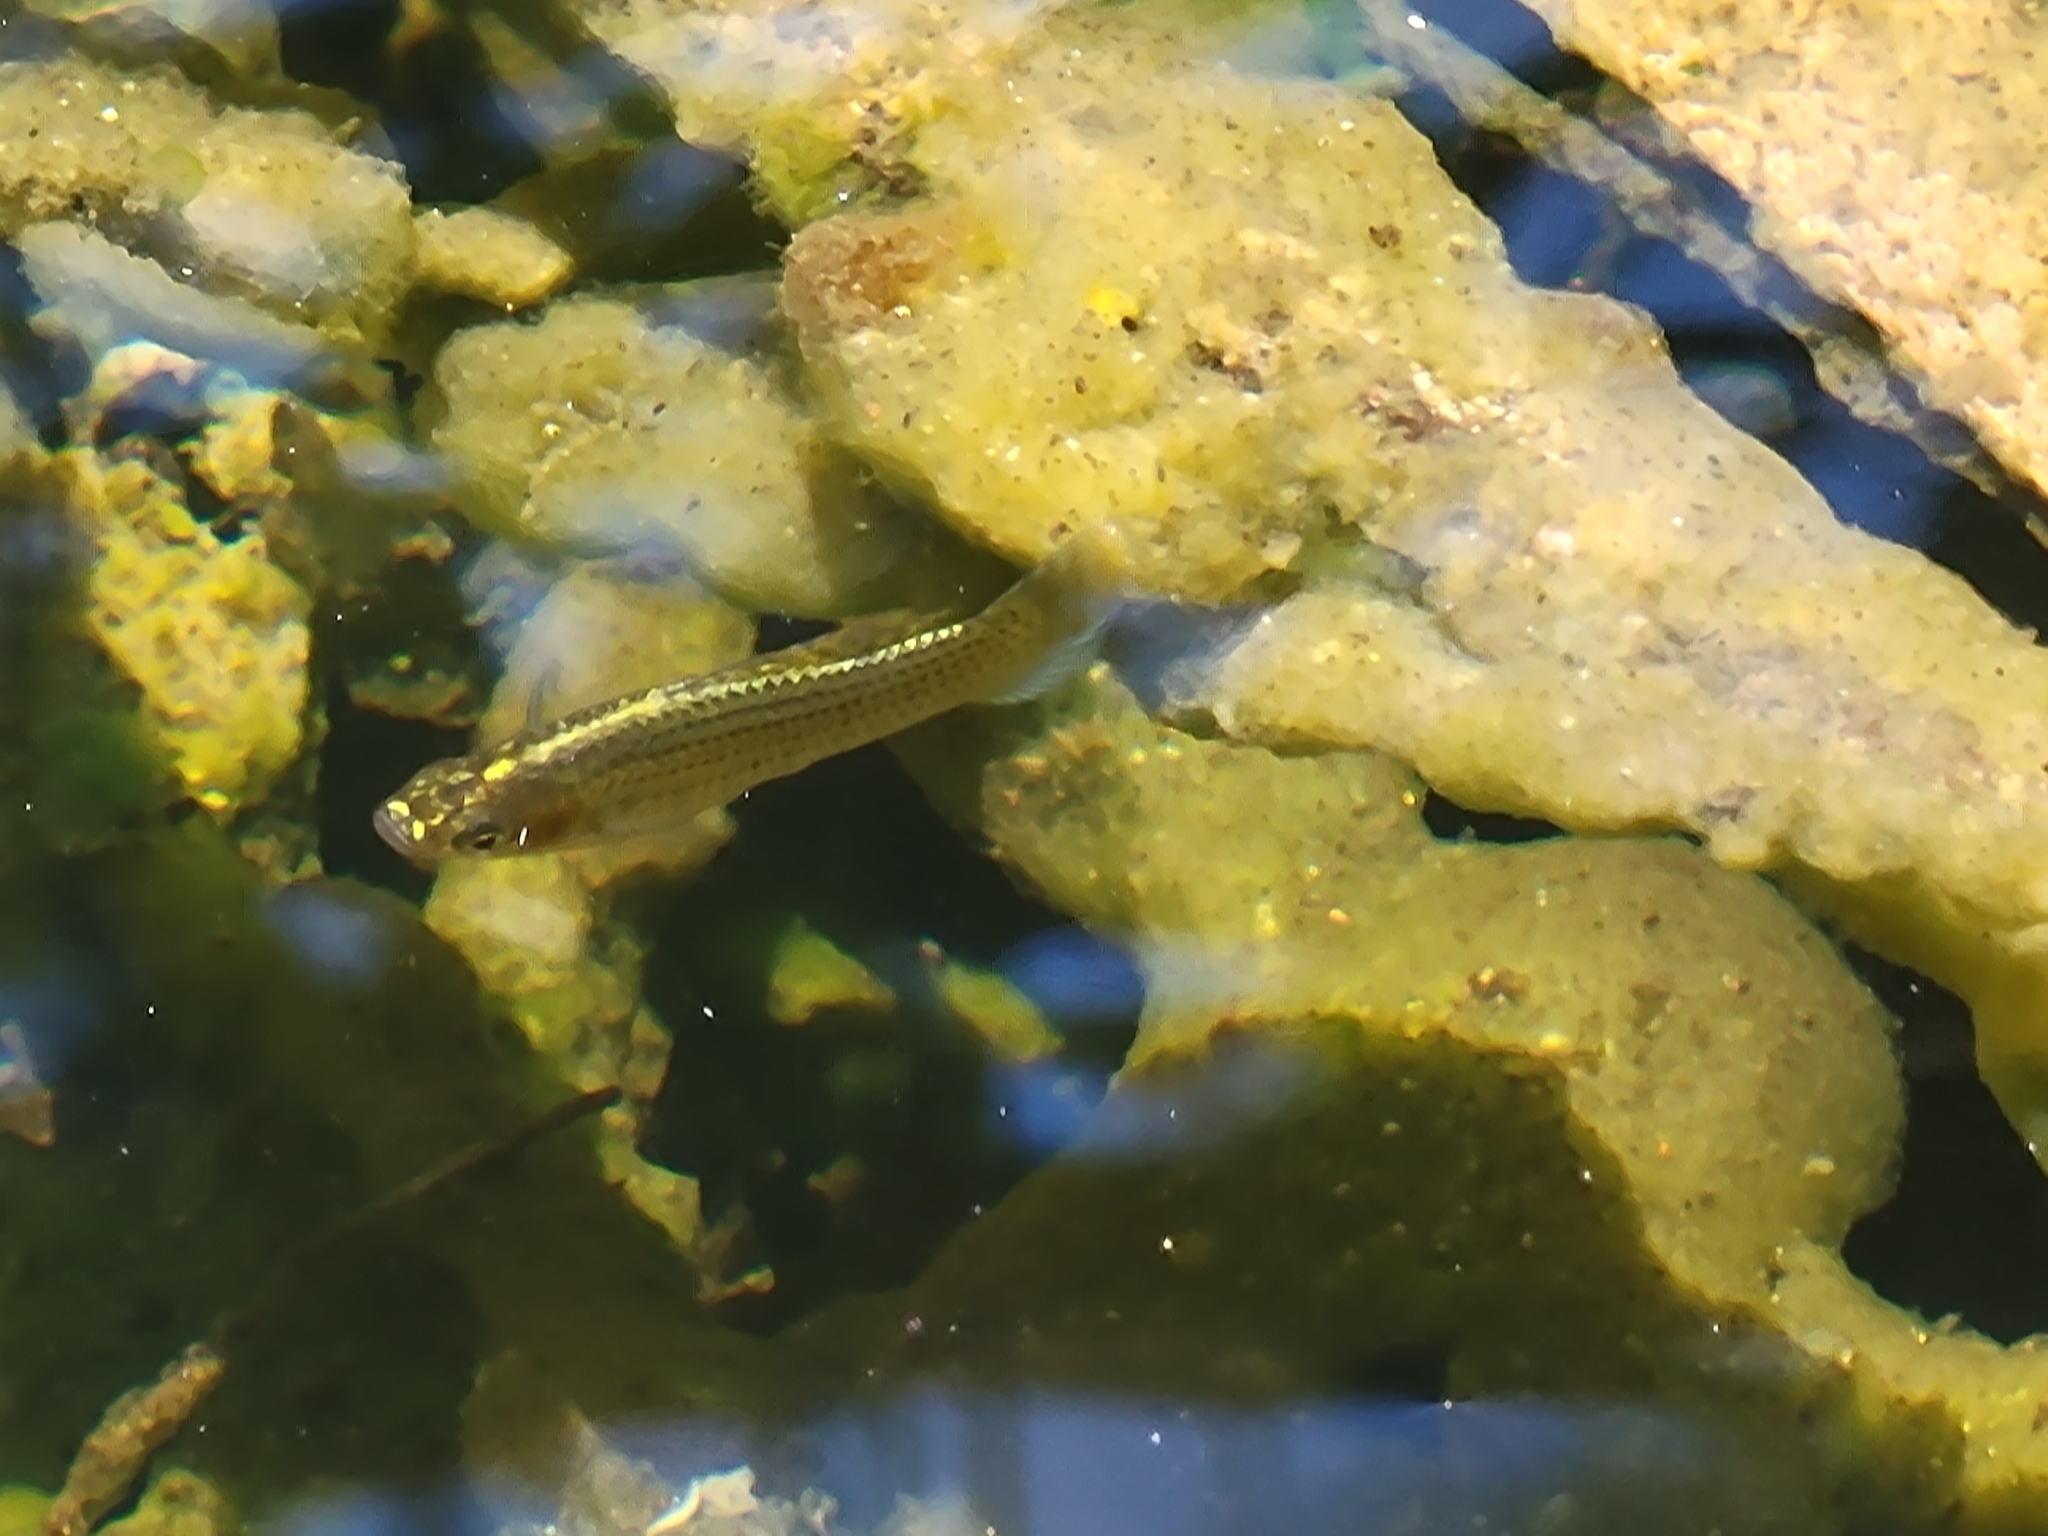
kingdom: Animalia
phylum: Chordata
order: Cyprinodontiformes
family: Poeciliidae
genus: Poecilia
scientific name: Poecilia latipinna
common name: Sailfin molly
